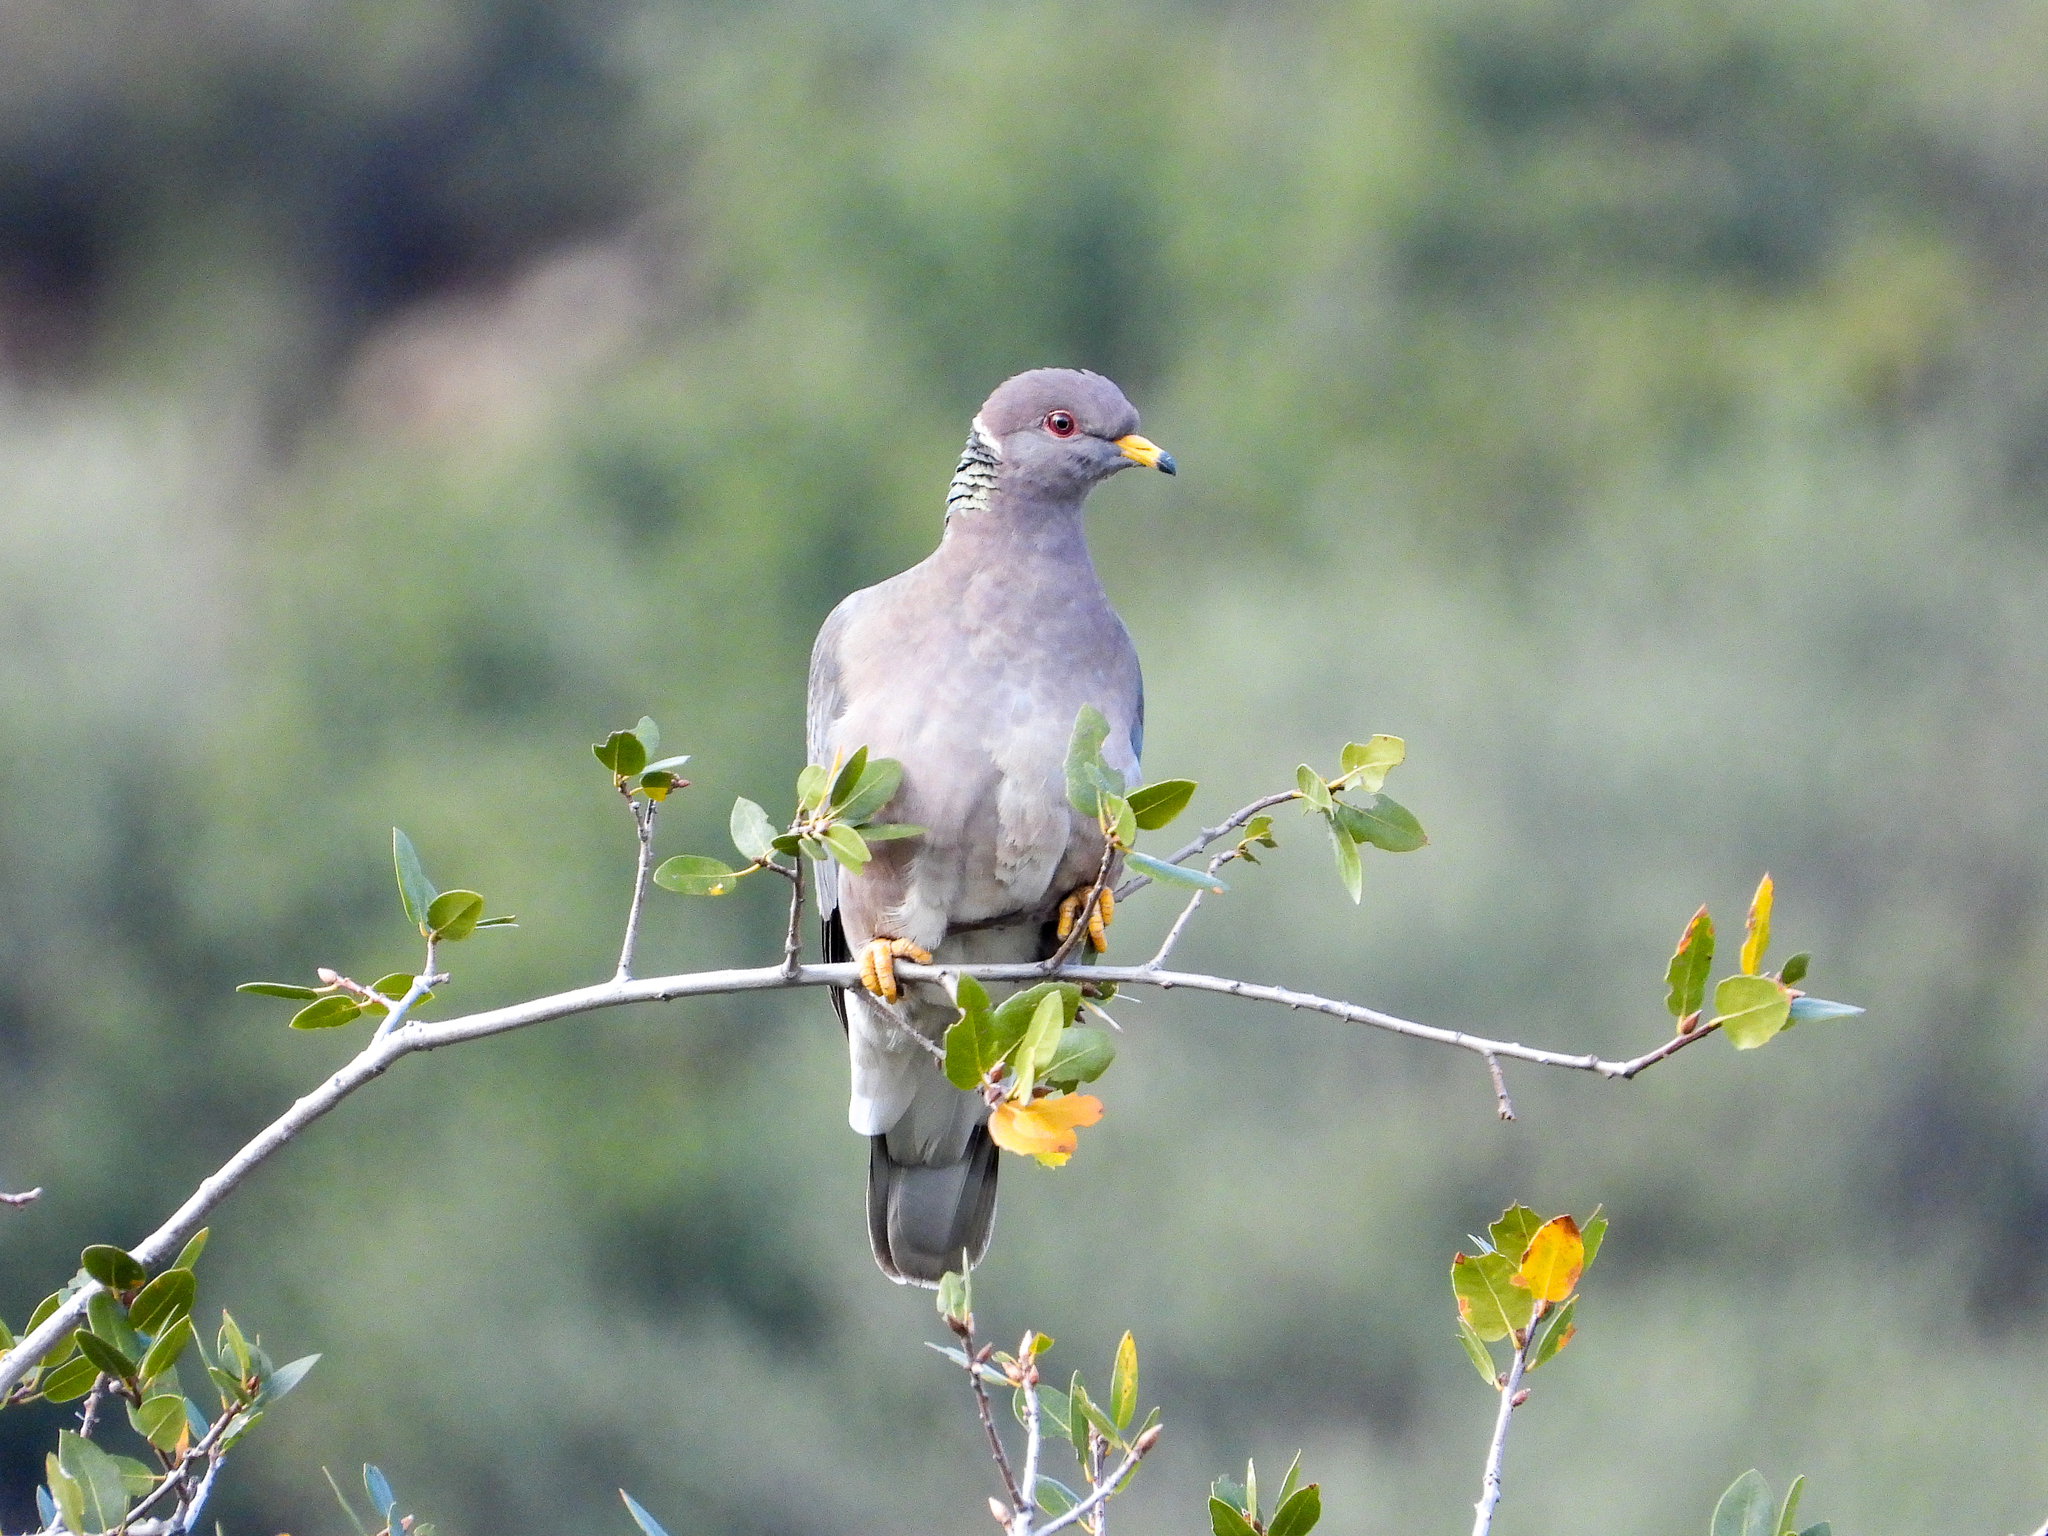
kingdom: Animalia
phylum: Chordata
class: Aves
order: Columbiformes
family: Columbidae
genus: Patagioenas
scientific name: Patagioenas fasciata
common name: Band-tailed pigeon
